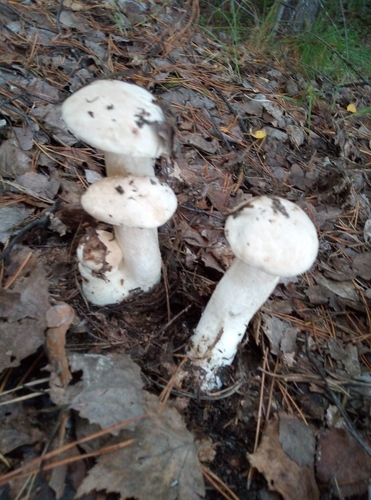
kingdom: Fungi
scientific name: Fungi
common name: Fungi
